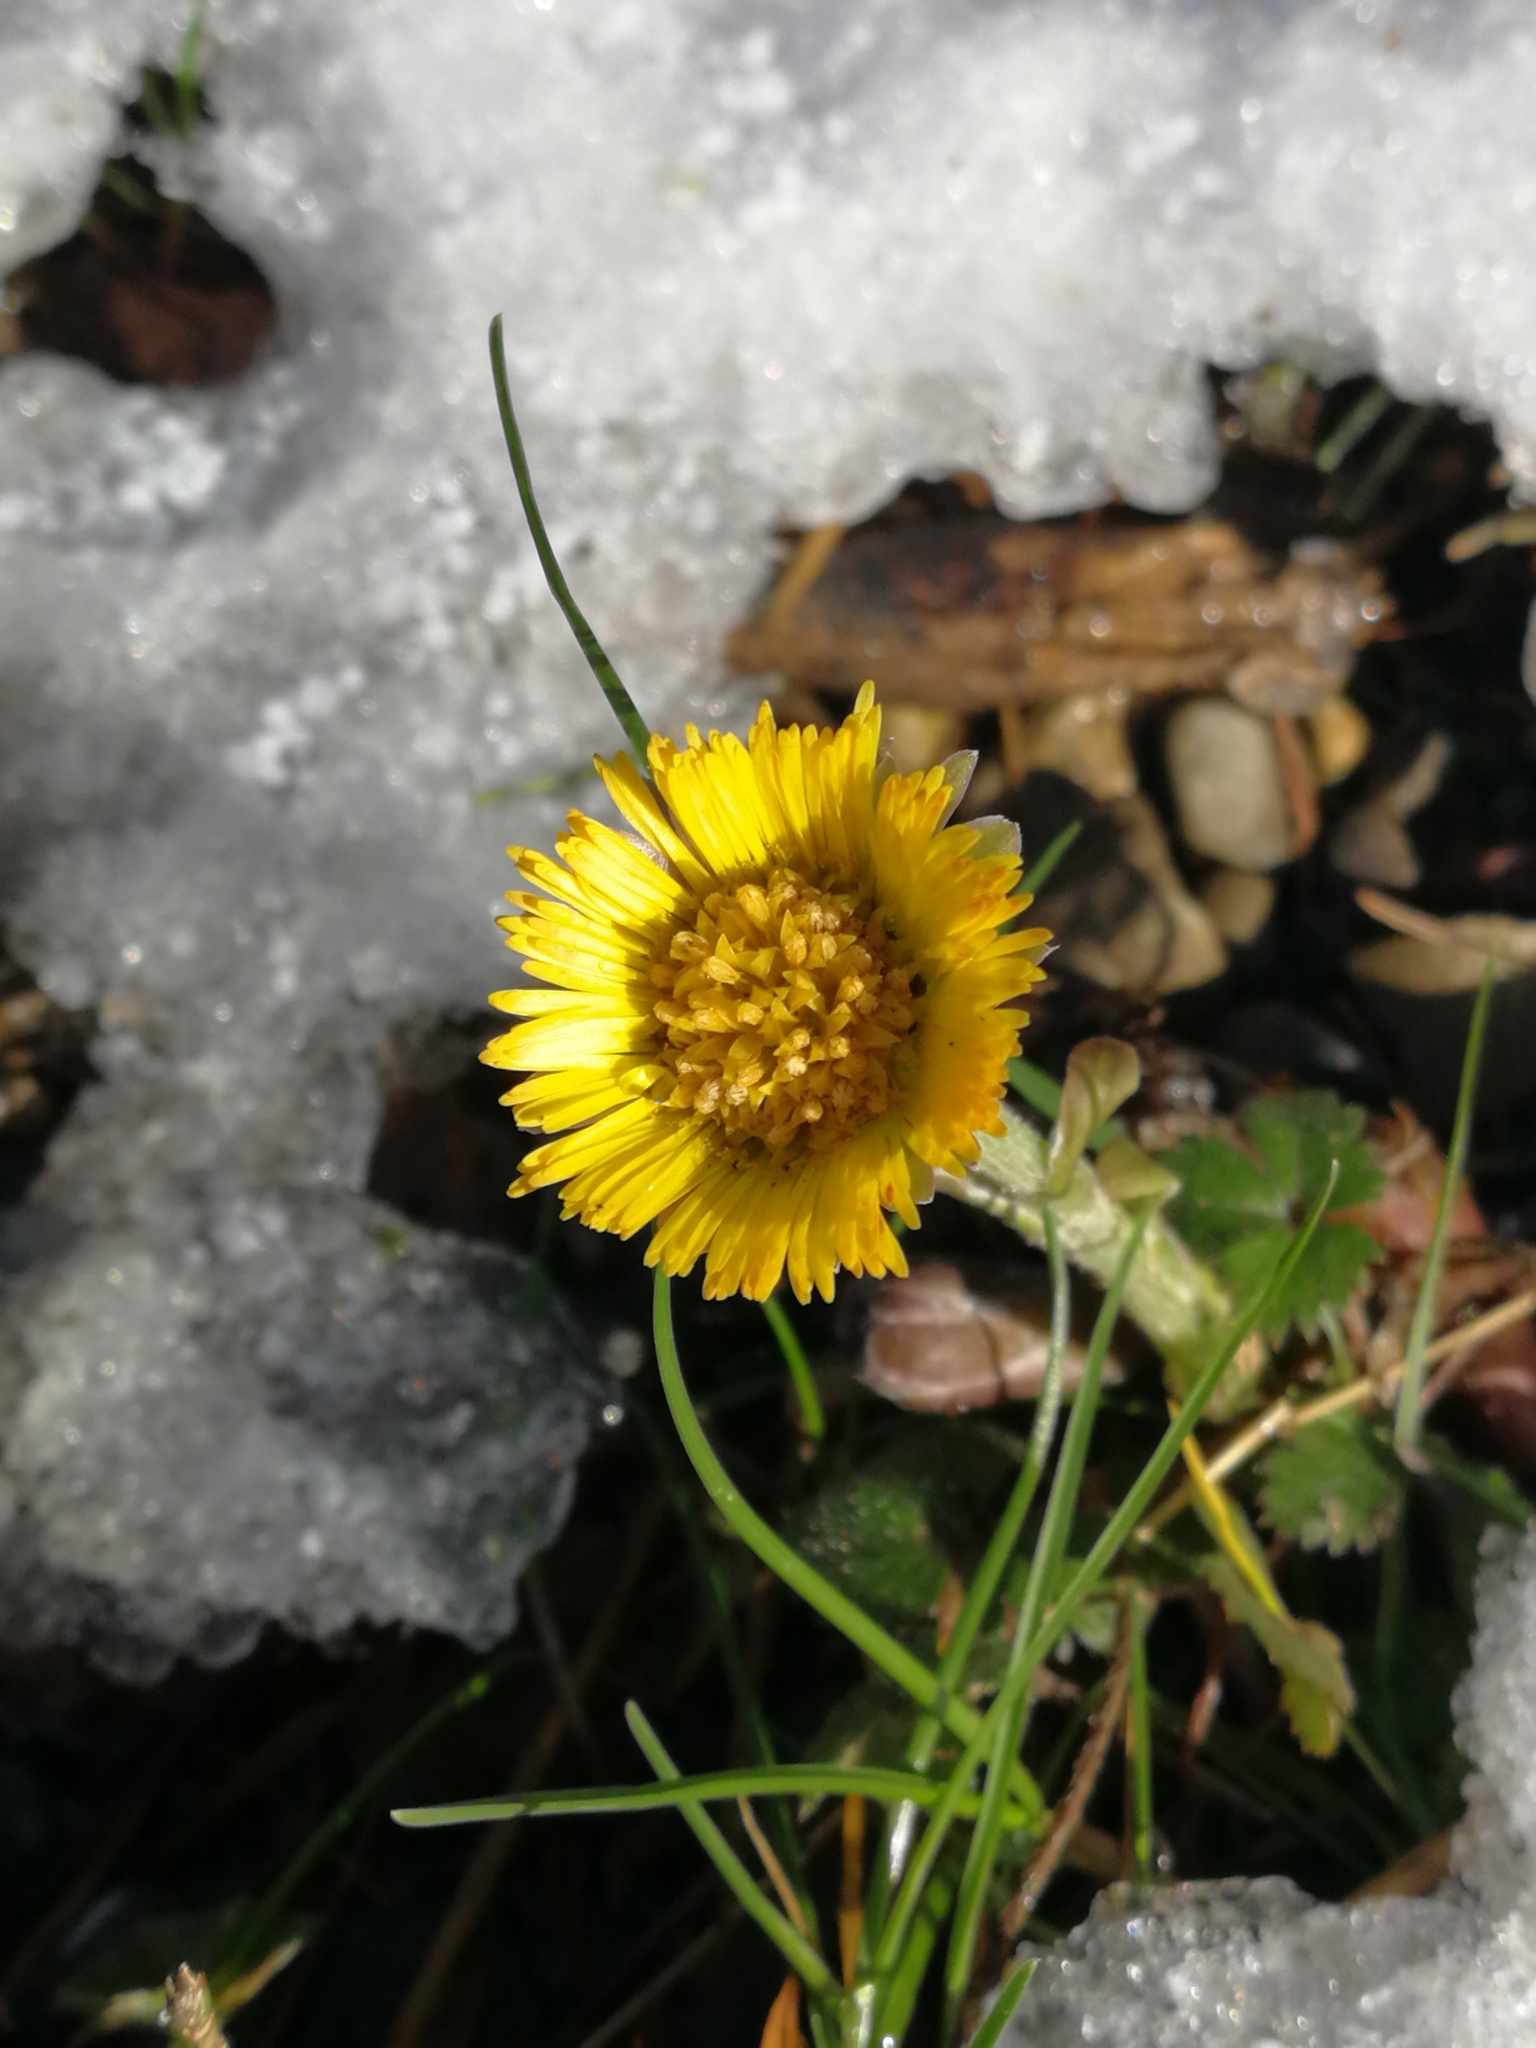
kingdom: Plantae
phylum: Tracheophyta
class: Magnoliopsida
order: Asterales
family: Asteraceae
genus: Tussilago
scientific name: Tussilago farfara
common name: Coltsfoot
